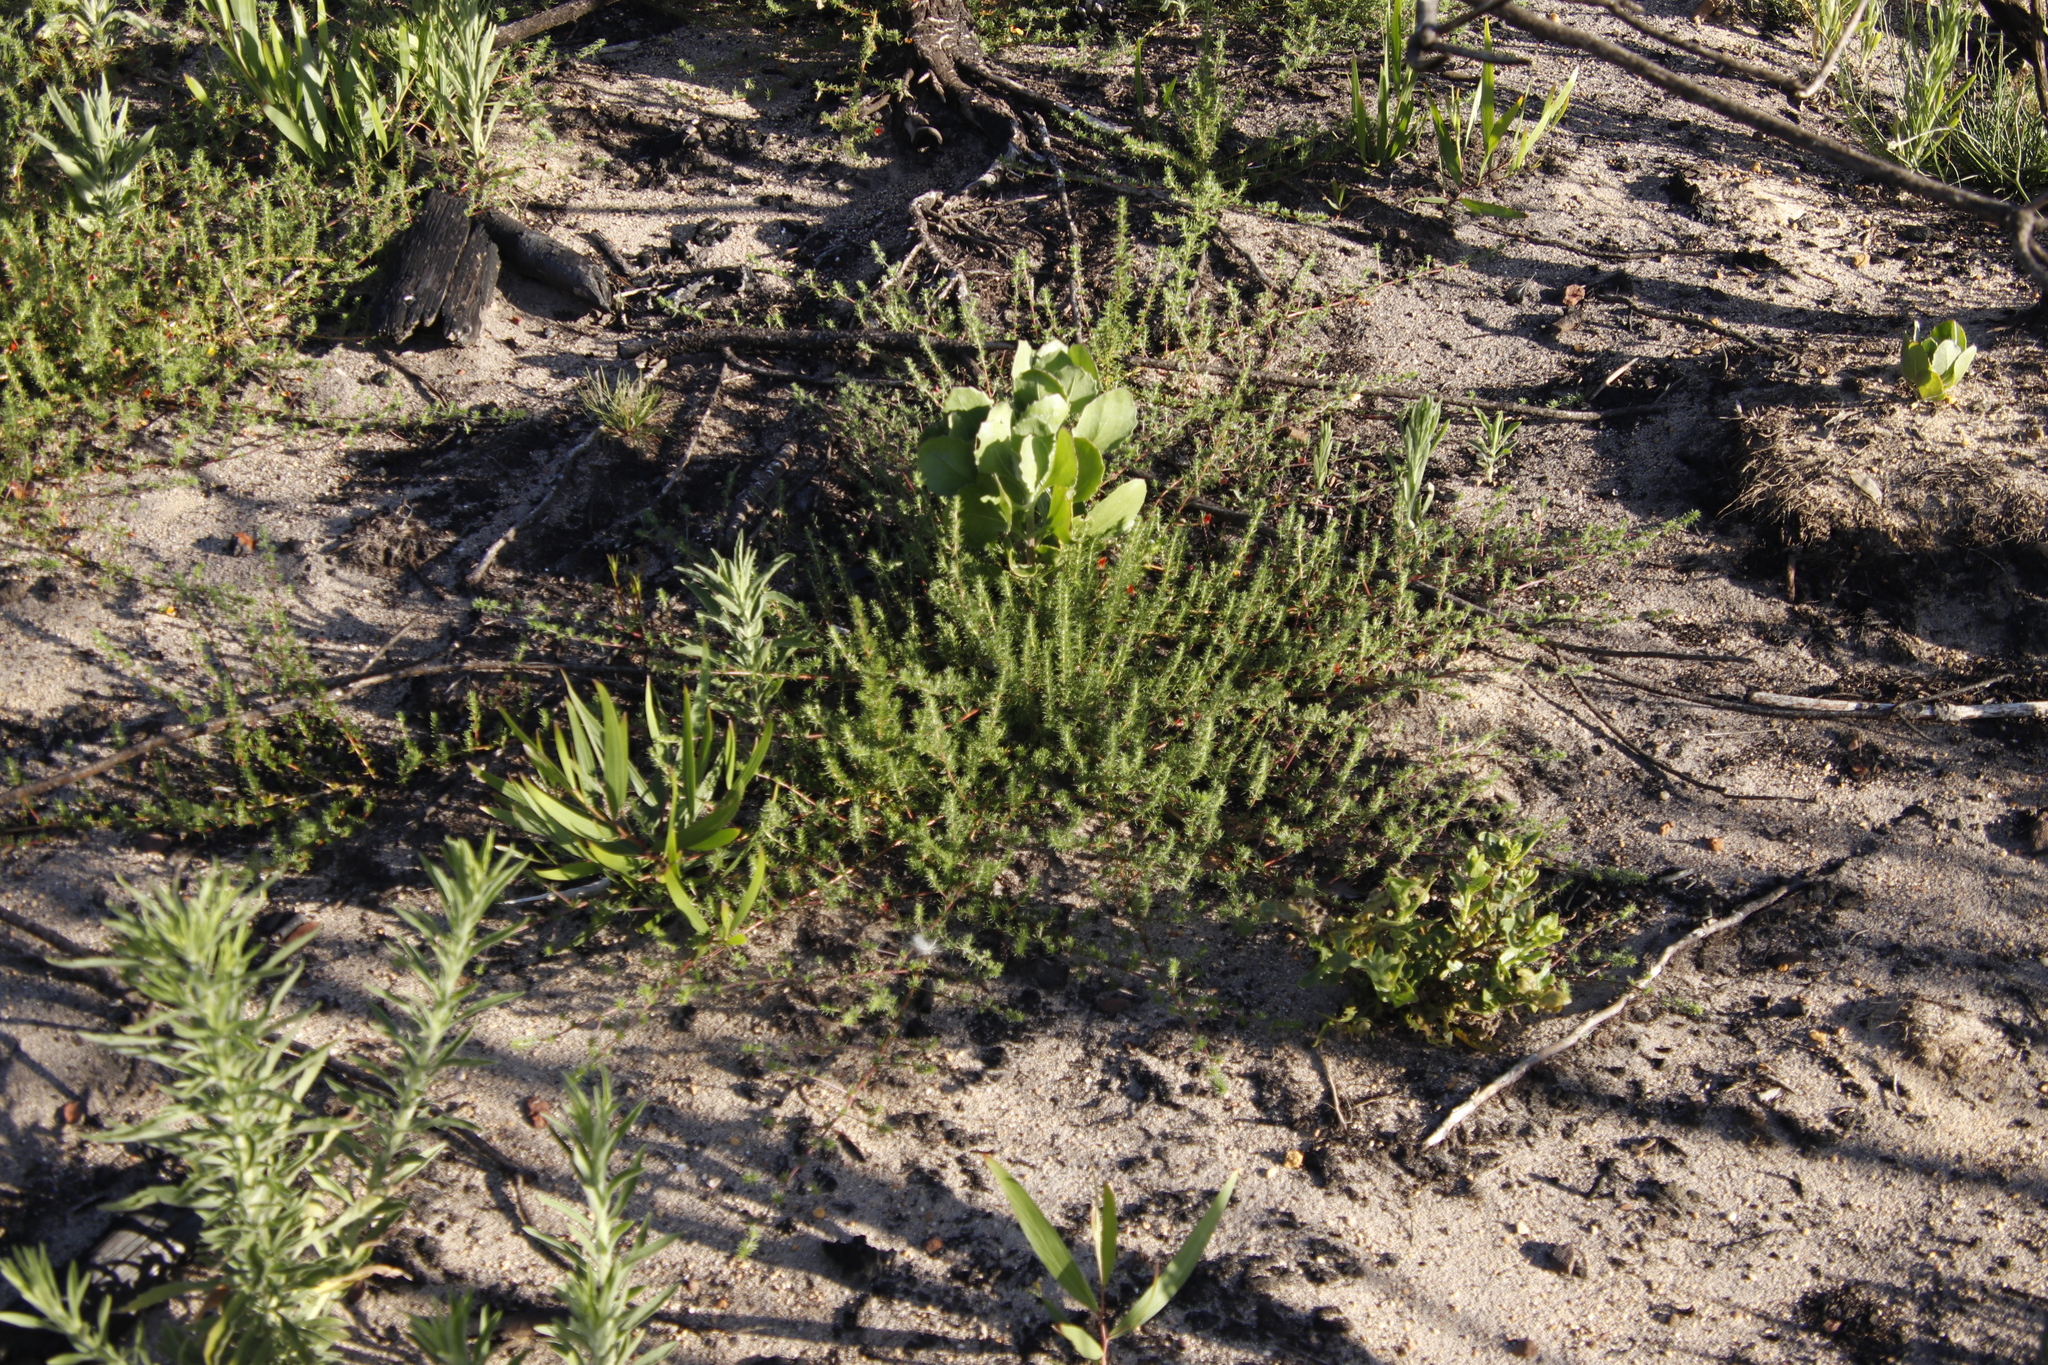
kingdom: Plantae
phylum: Tracheophyta
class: Magnoliopsida
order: Asterales
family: Asteraceae
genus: Osteospermum
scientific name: Osteospermum moniliferum
